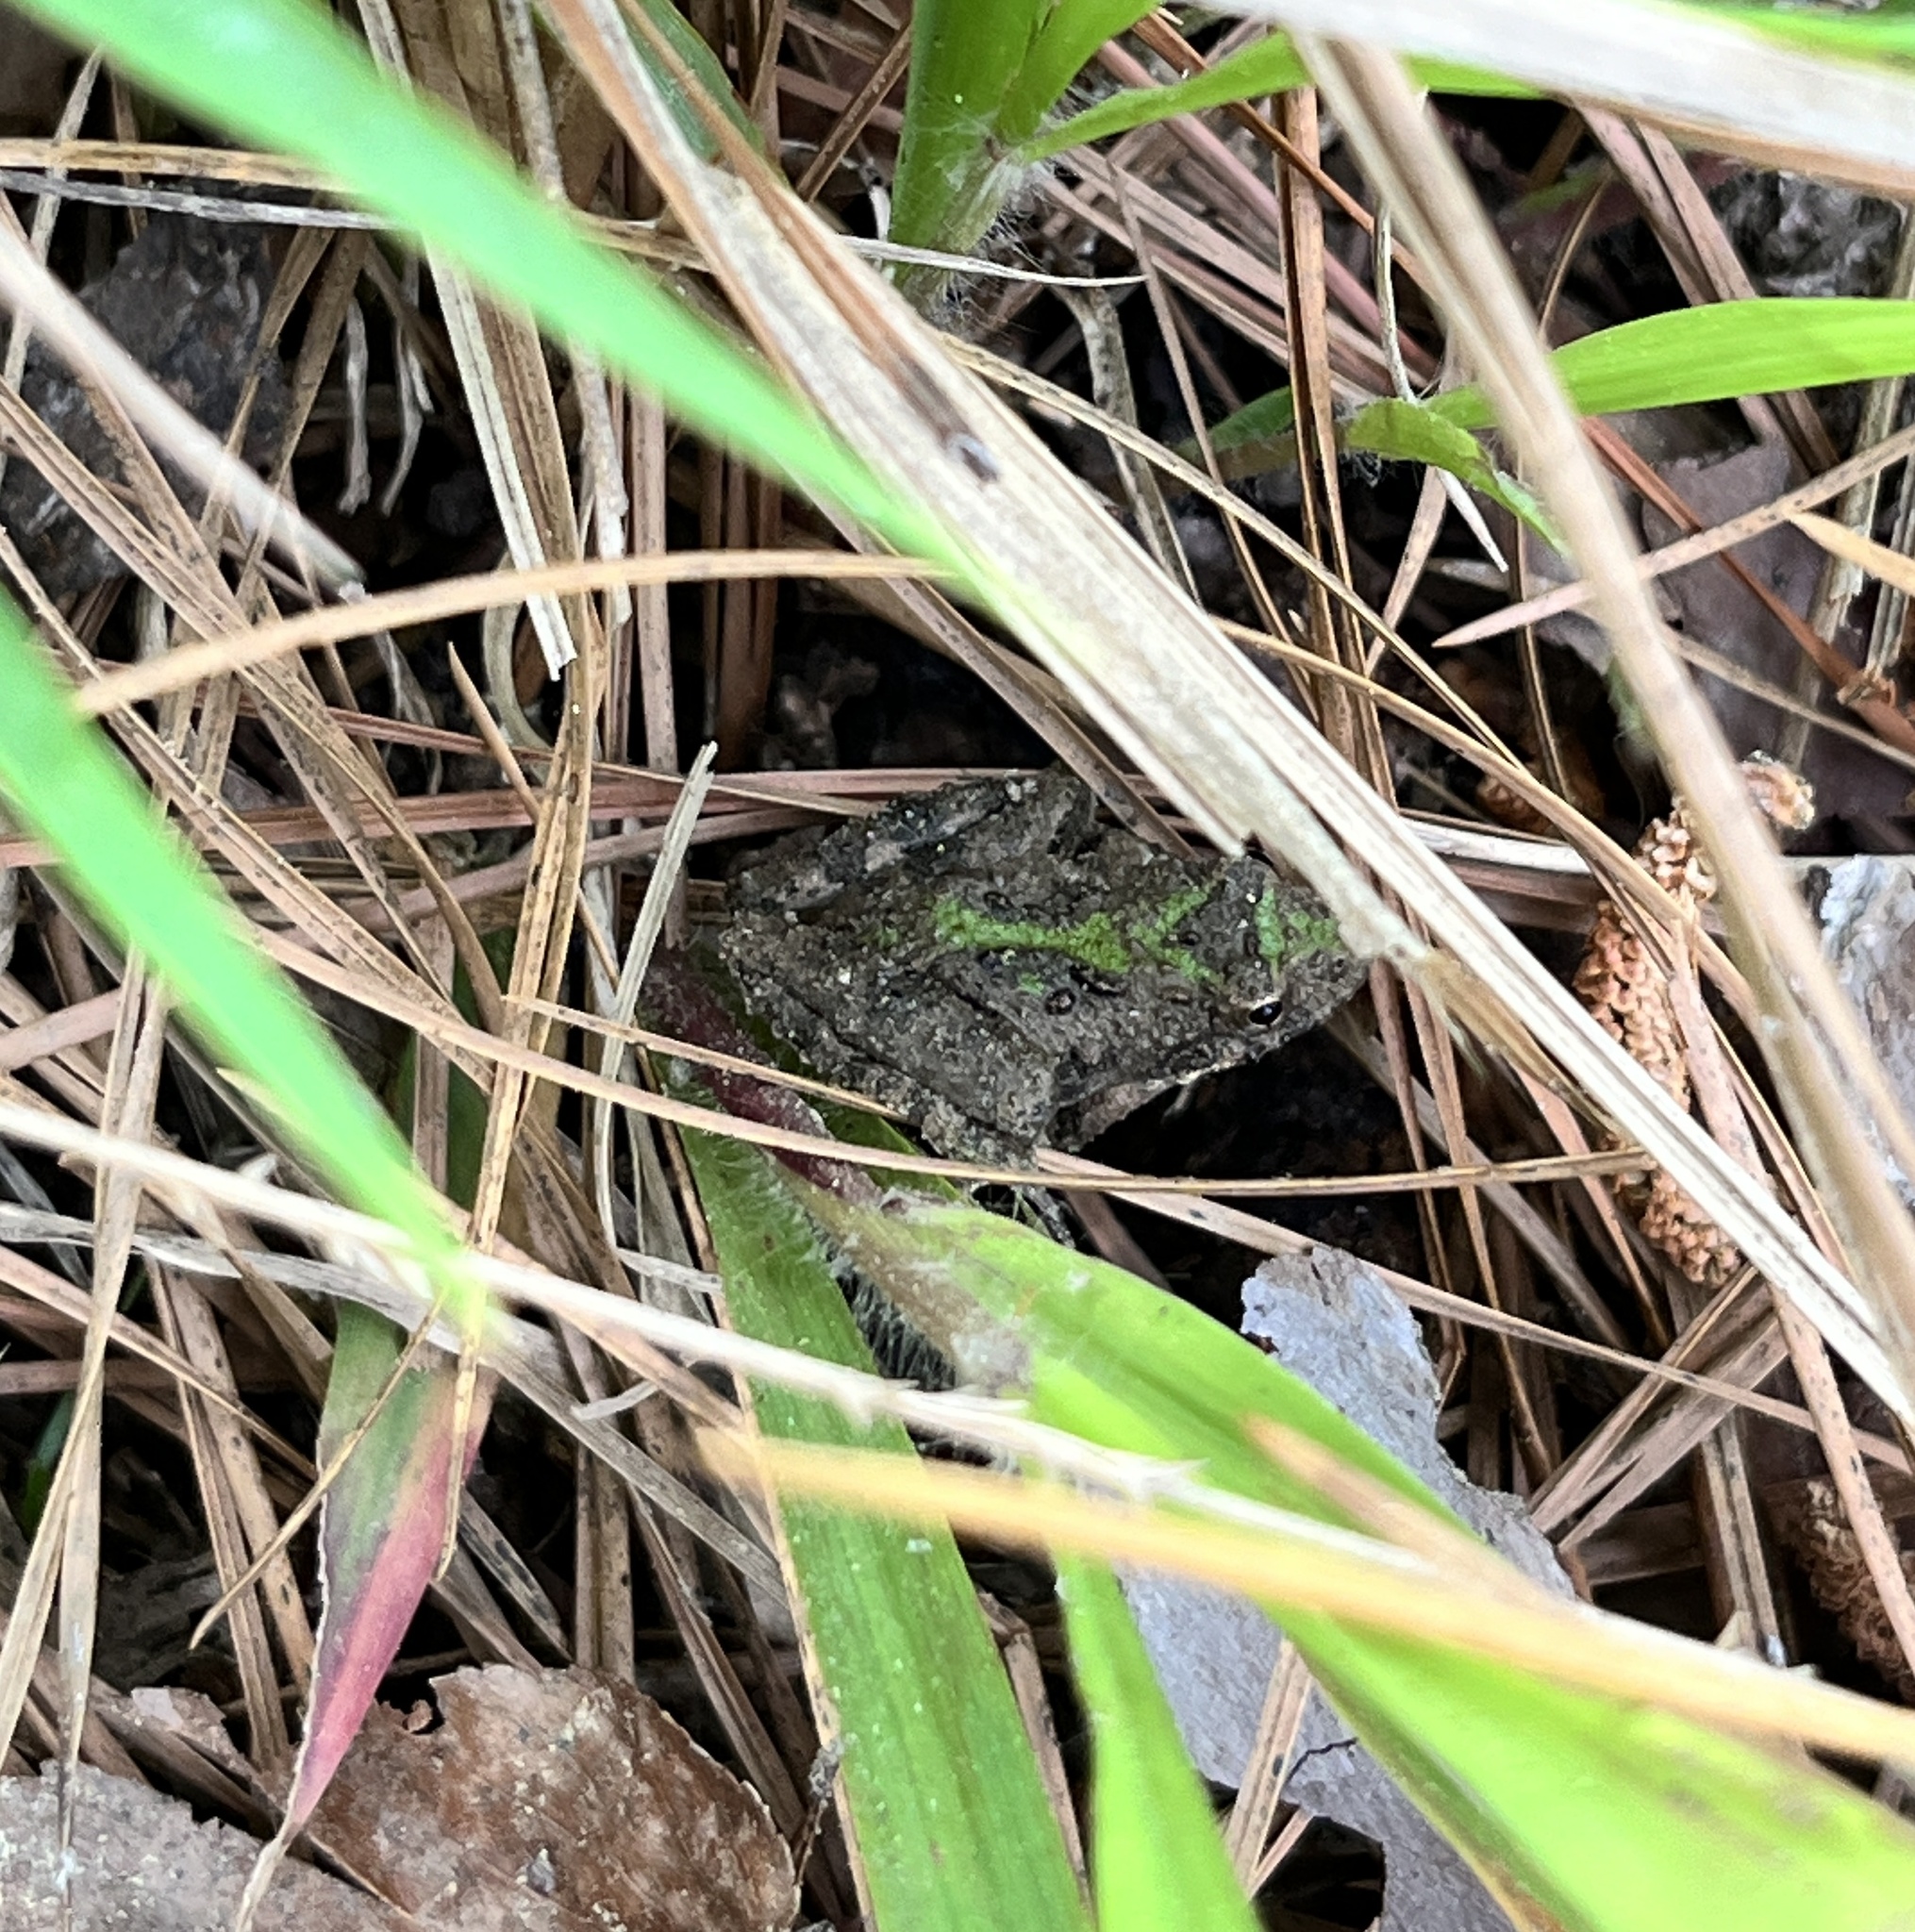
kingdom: Animalia
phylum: Chordata
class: Amphibia
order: Anura
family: Hylidae
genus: Acris
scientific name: Acris blanchardi
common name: Blanchard's cricket frog
